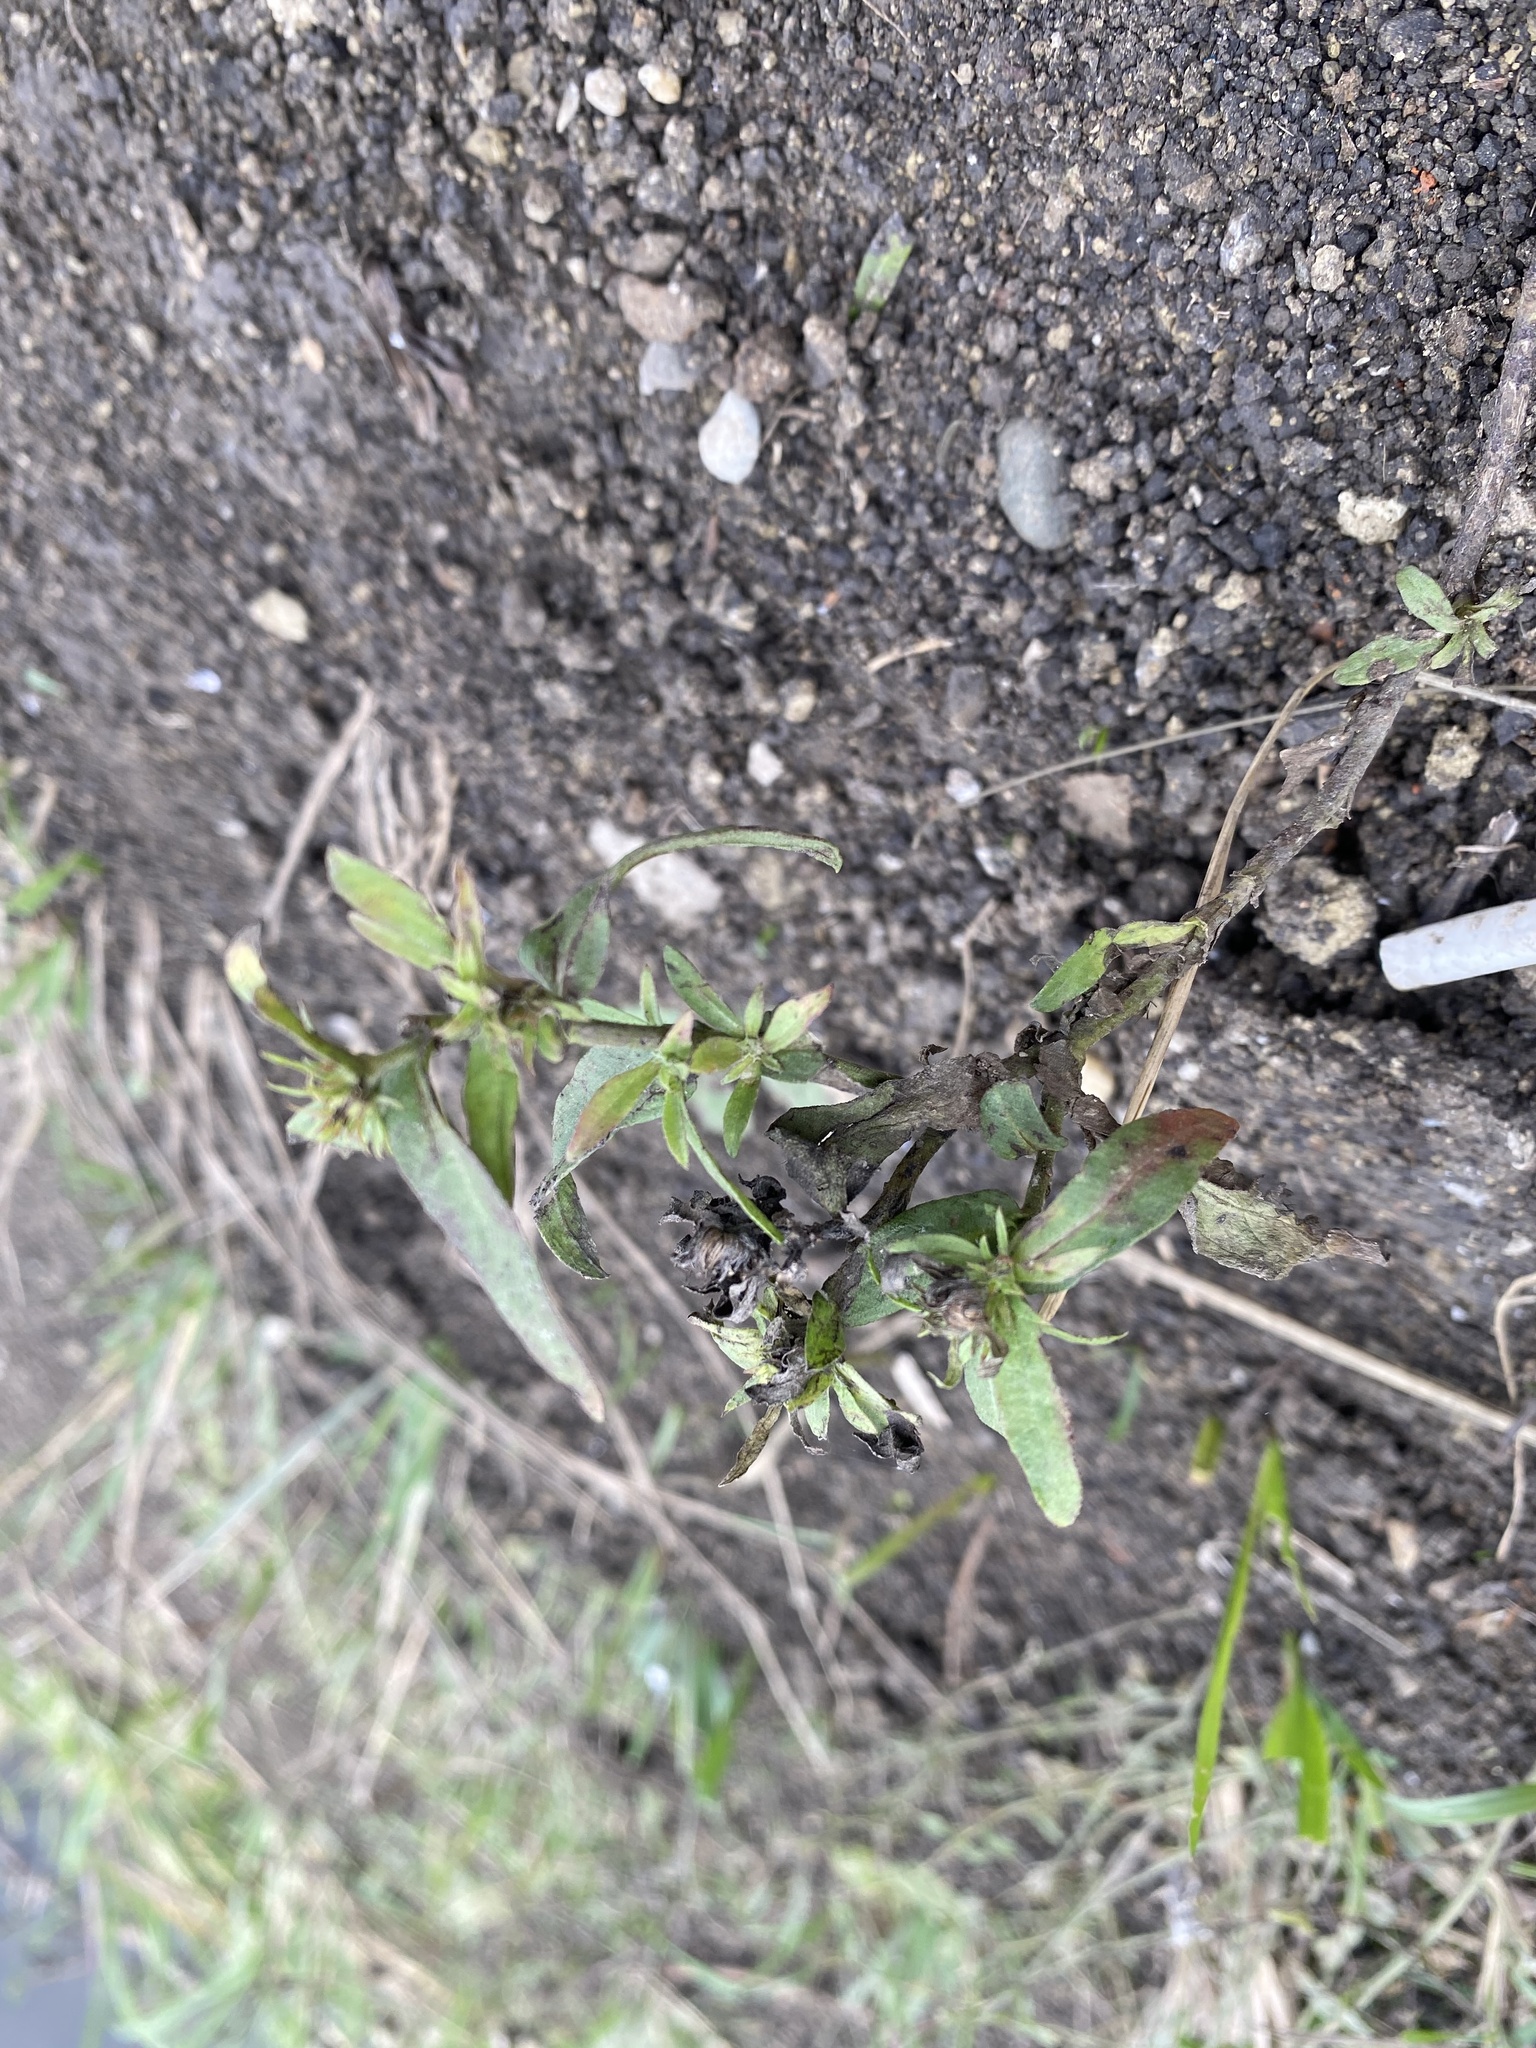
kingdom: Plantae
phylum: Tracheophyta
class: Magnoliopsida
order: Asterales
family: Asteraceae
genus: Pentanema
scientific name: Pentanema britannicum
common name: British elecampane
